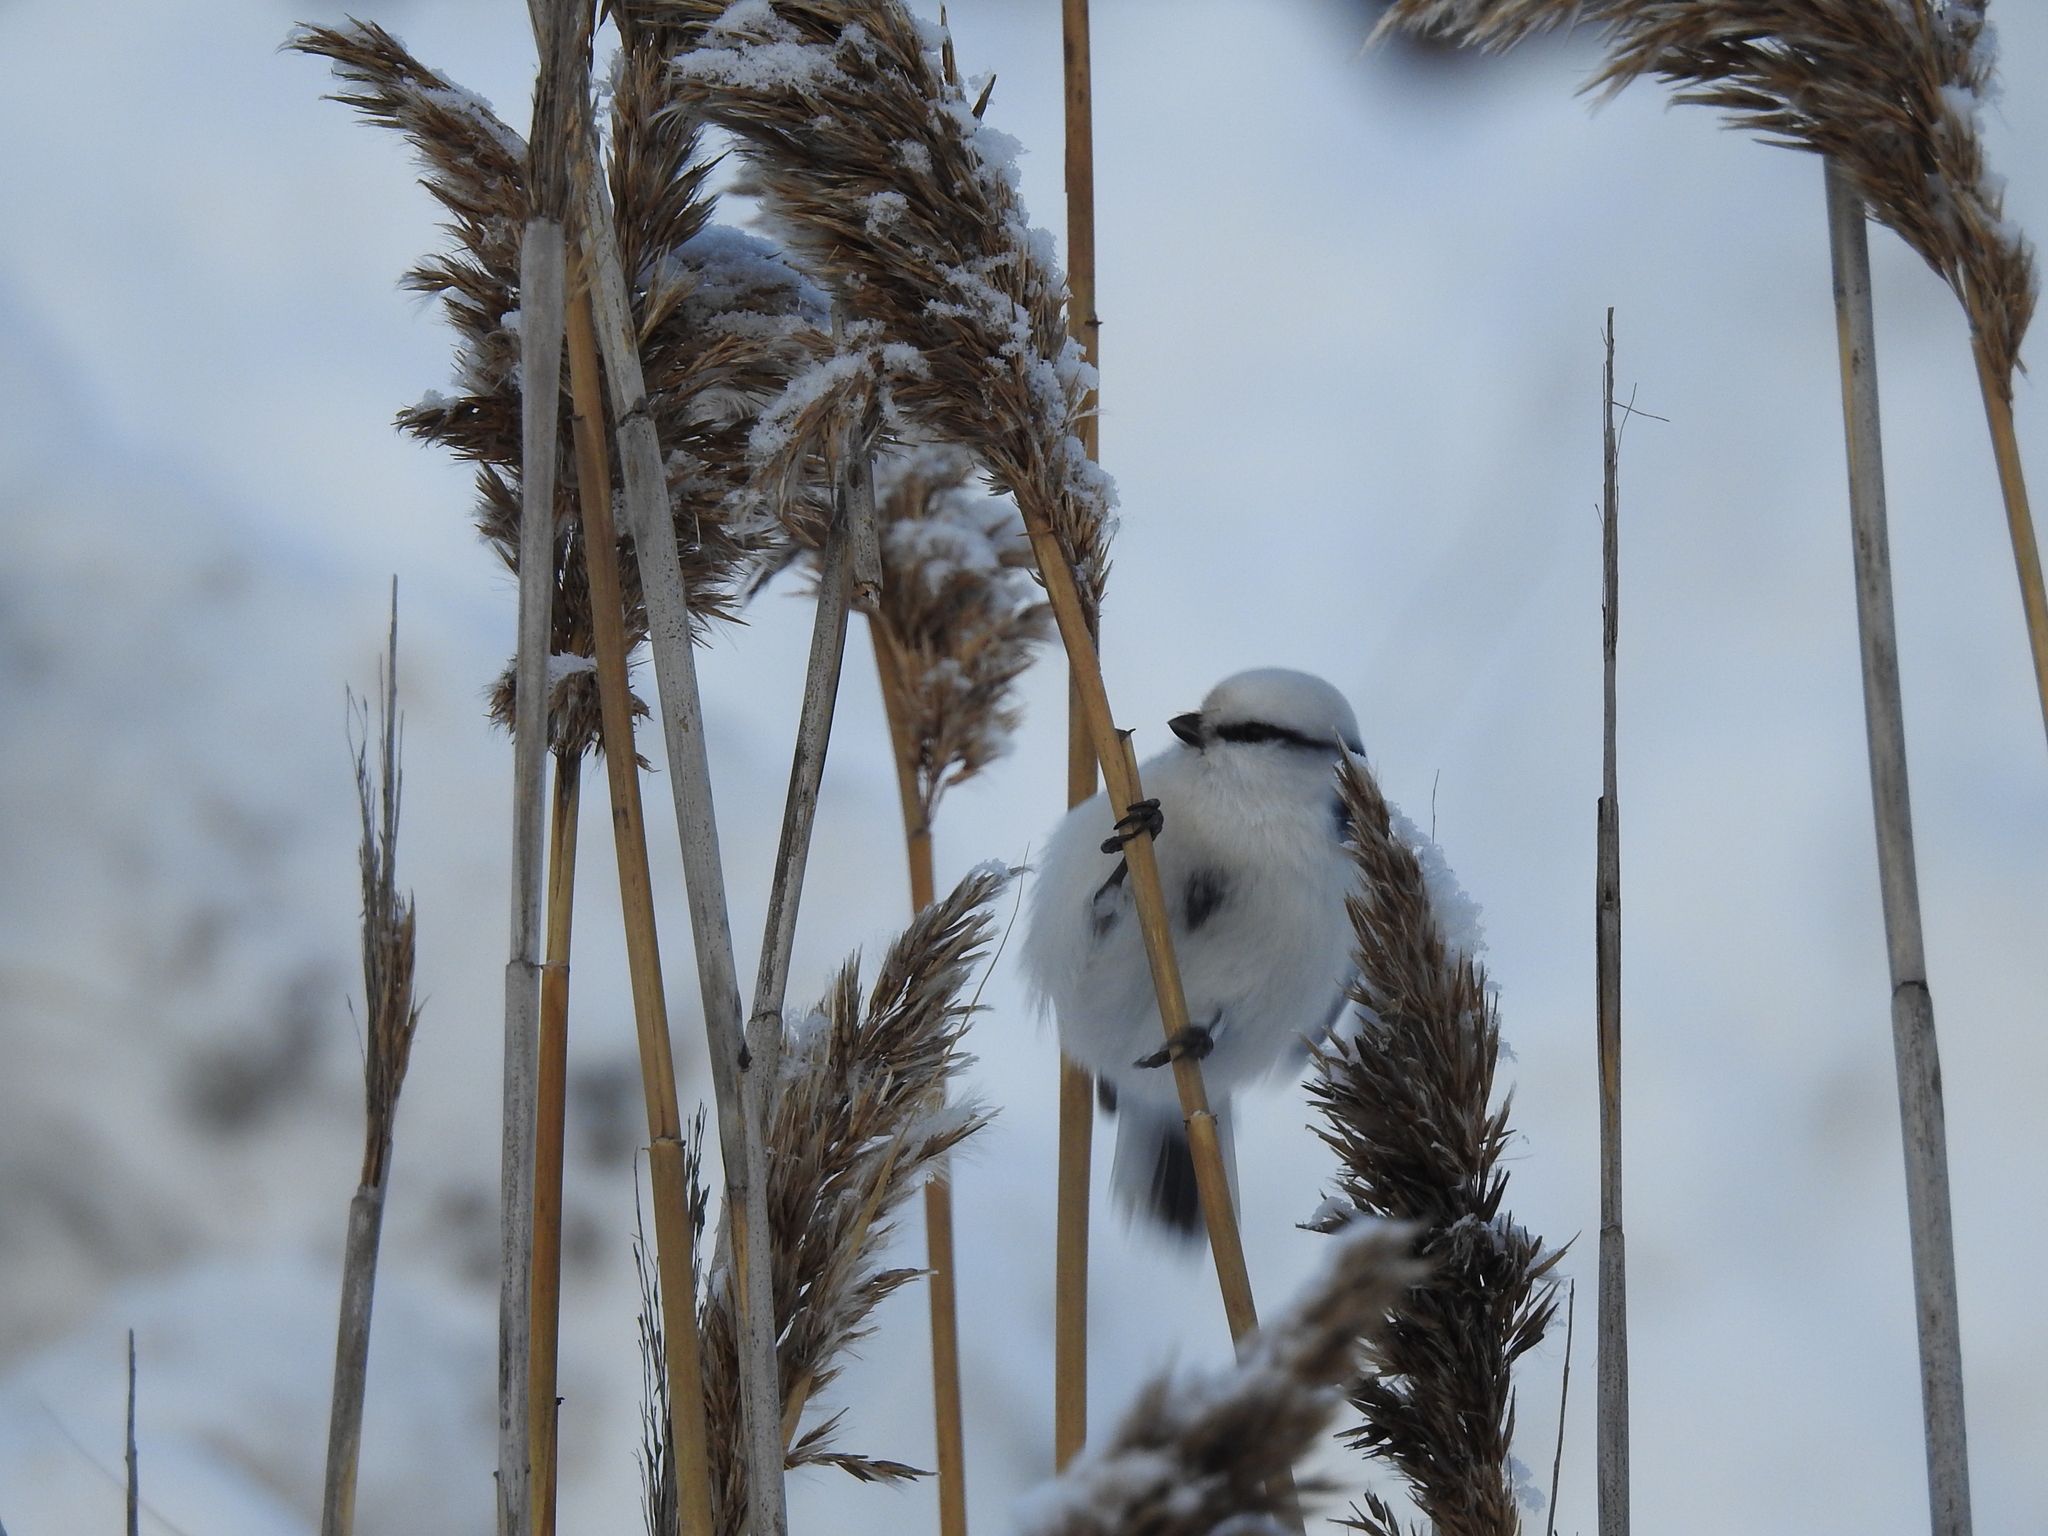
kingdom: Animalia
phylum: Chordata
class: Aves
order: Passeriformes
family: Paridae
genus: Cyanistes
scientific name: Cyanistes cyanus
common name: Azure tit
